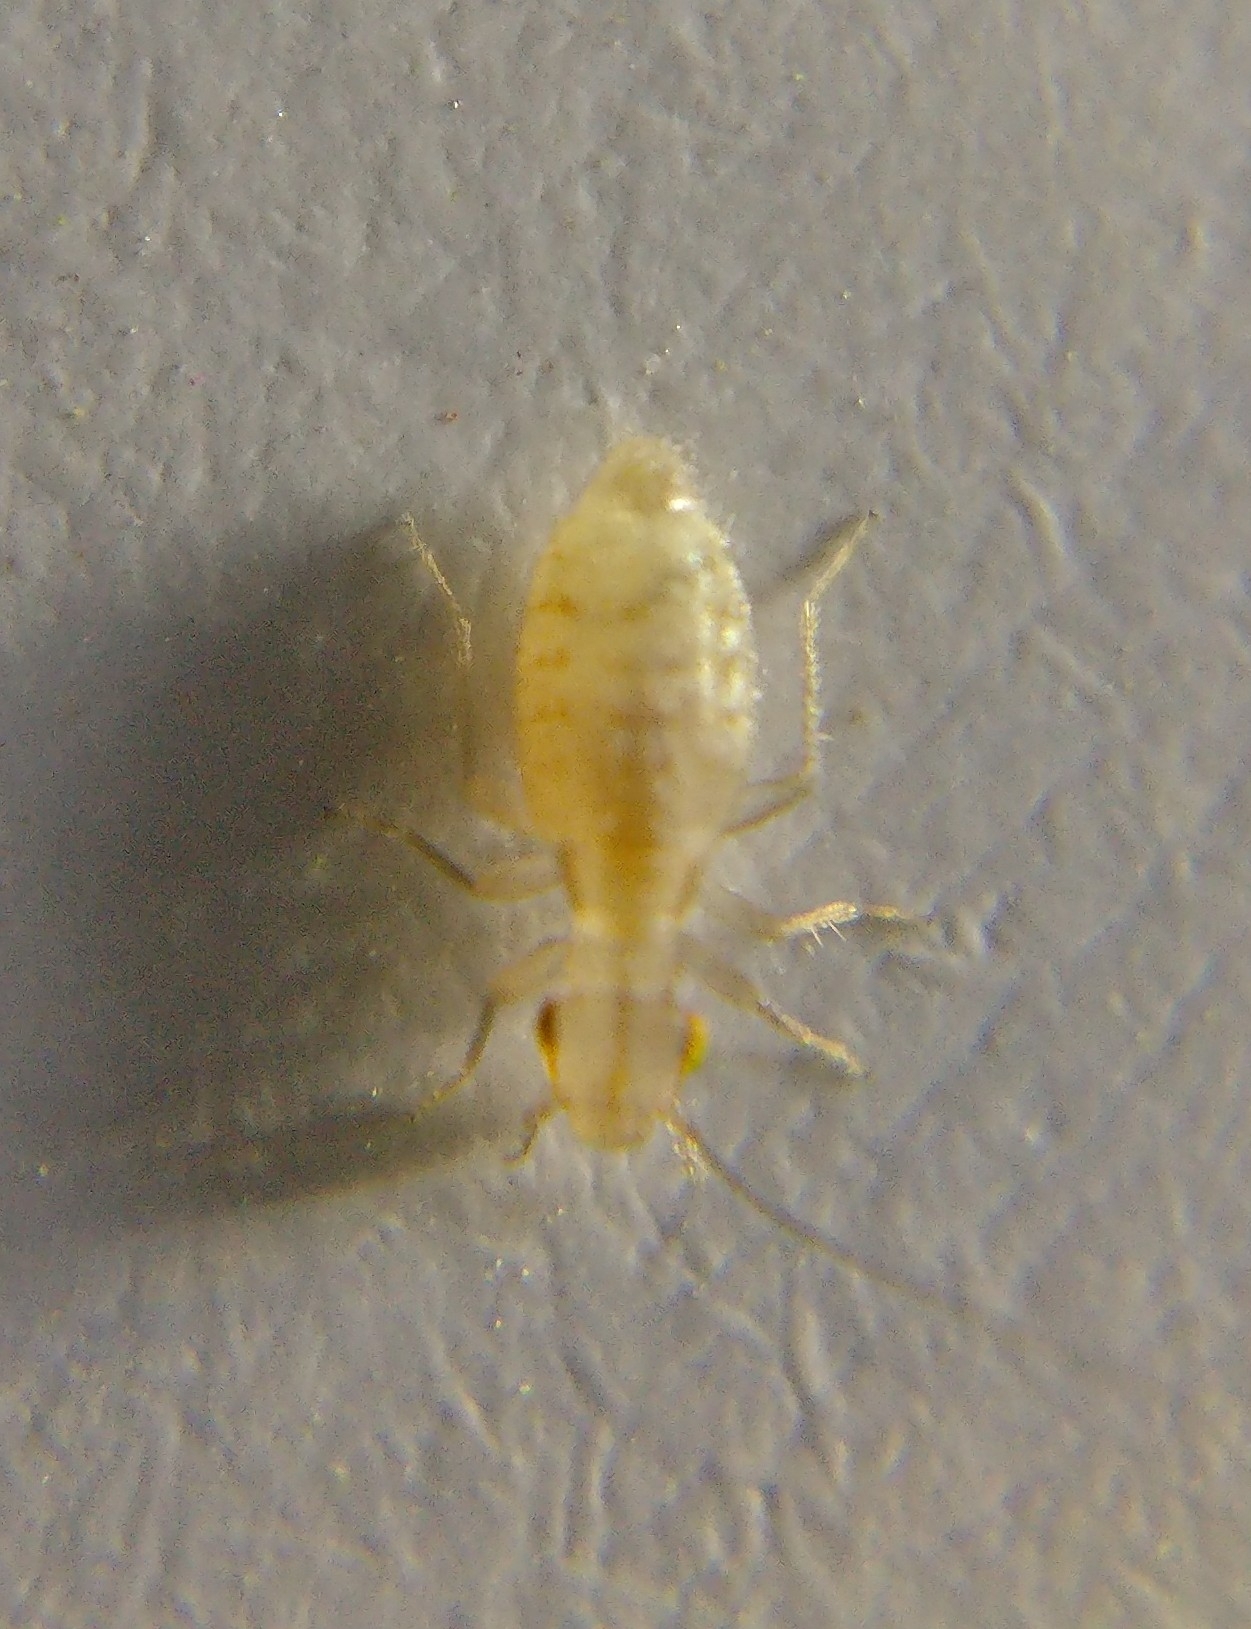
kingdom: Animalia
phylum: Arthropoda
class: Insecta
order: Psocodea
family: Trogiidae
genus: Trogium
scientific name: Trogium pulsatorium
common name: Granary book louse
